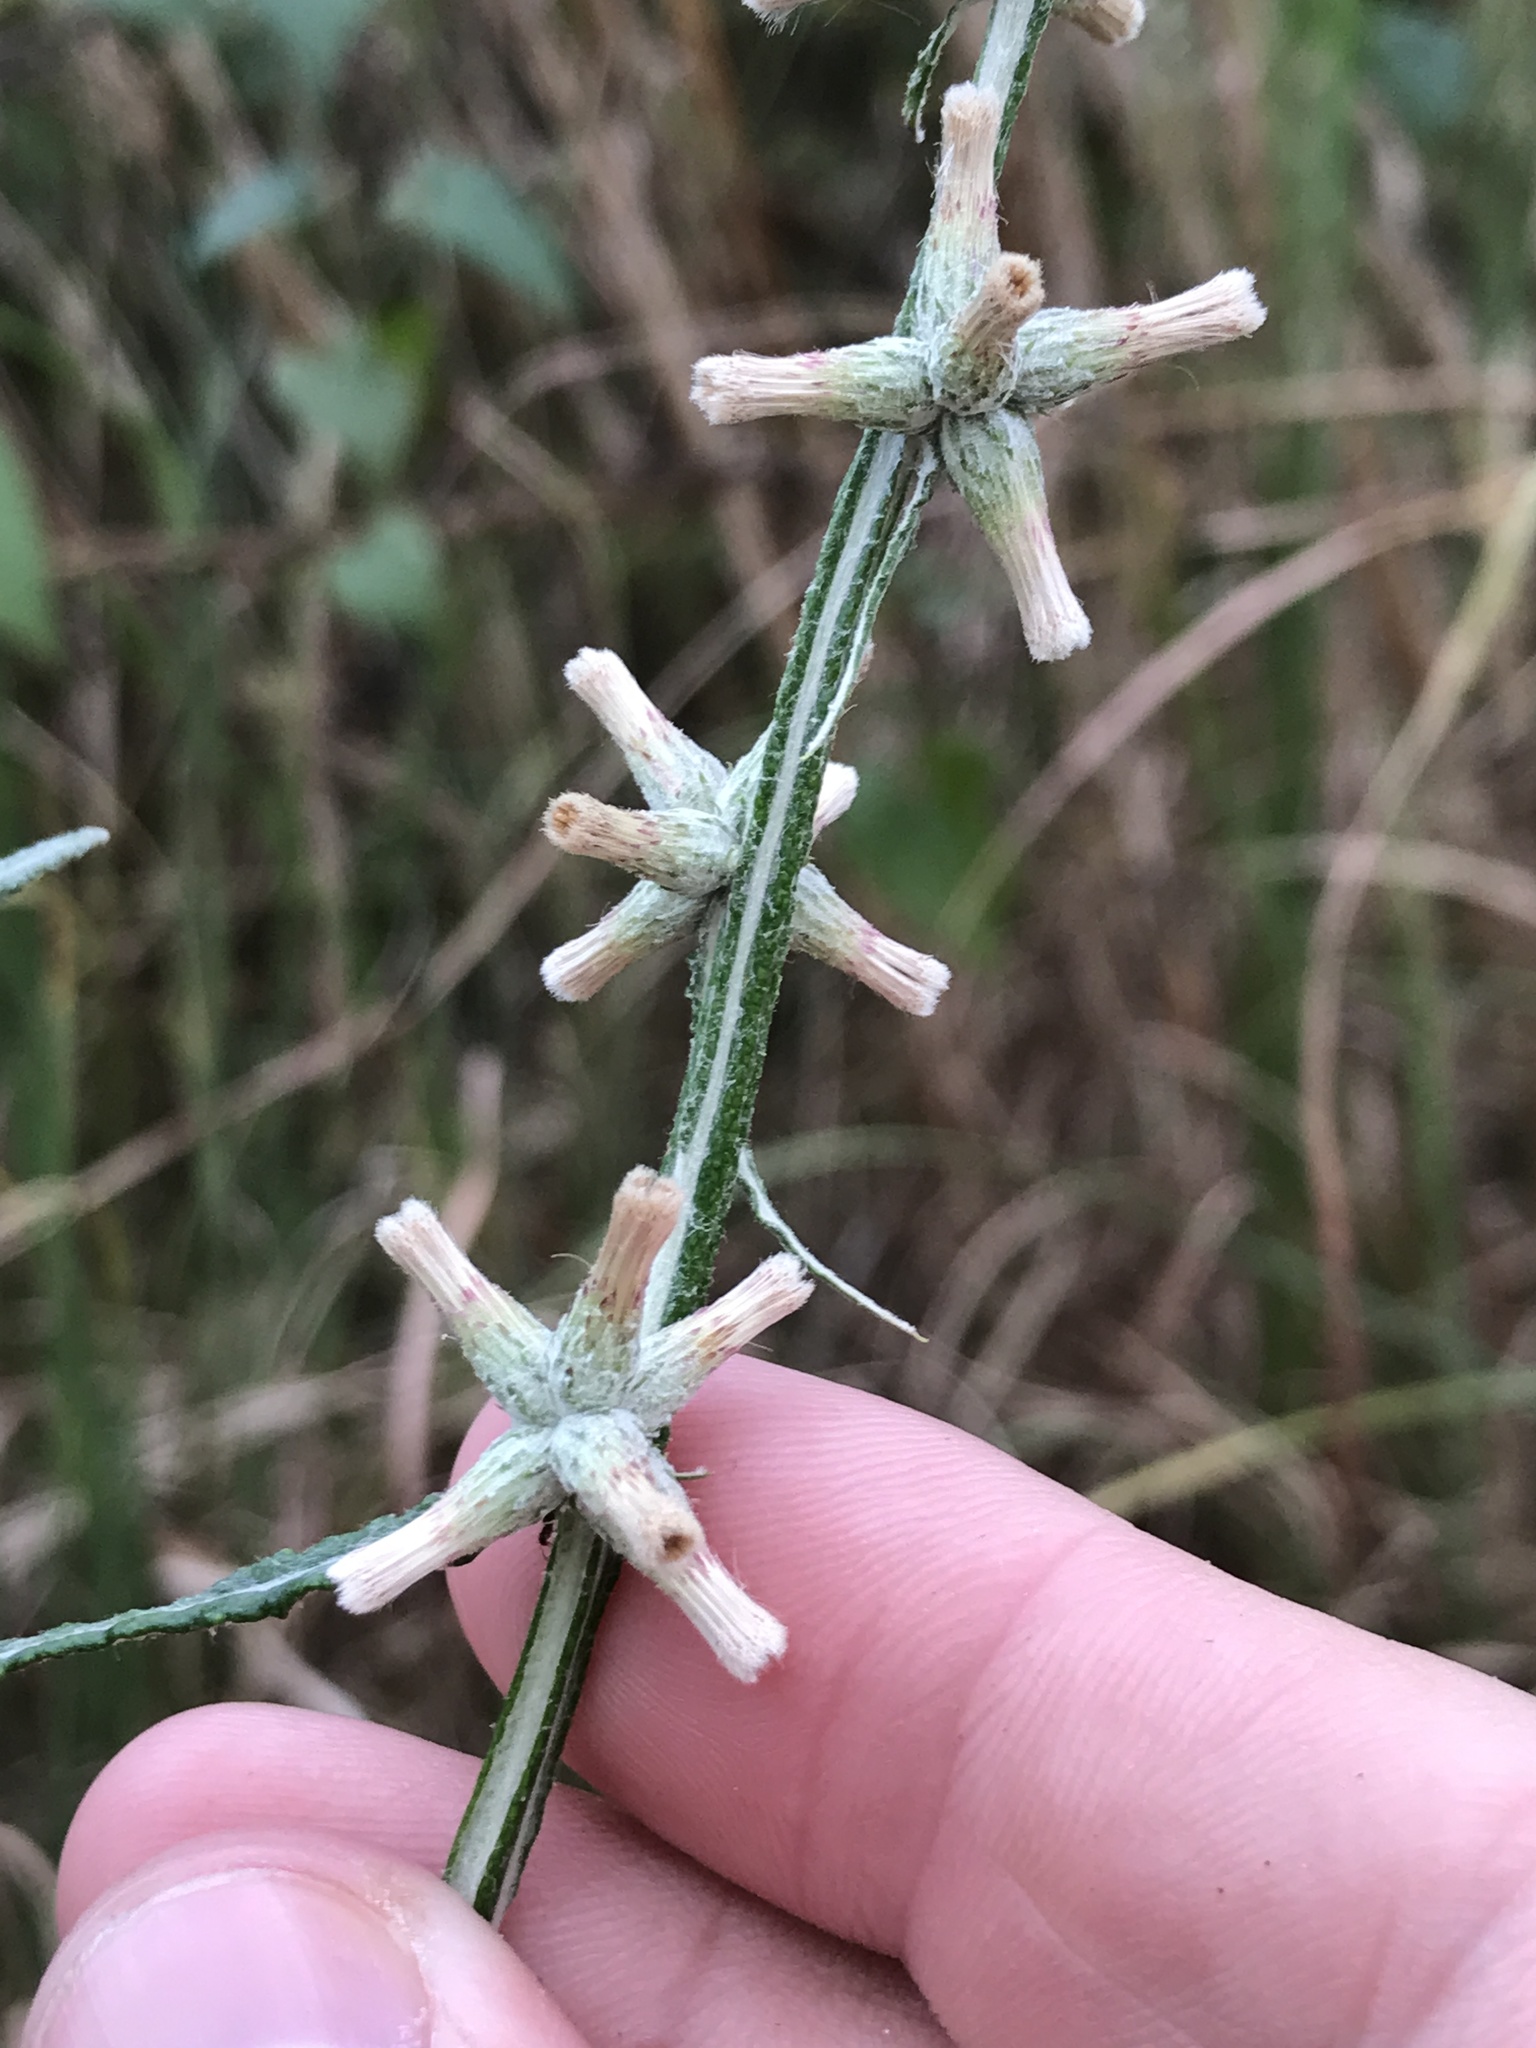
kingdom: Plantae
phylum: Tracheophyta
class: Magnoliopsida
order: Asterales
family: Asteraceae
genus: Pterocaulon
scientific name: Pterocaulon virgatum
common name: Wand blackroot
